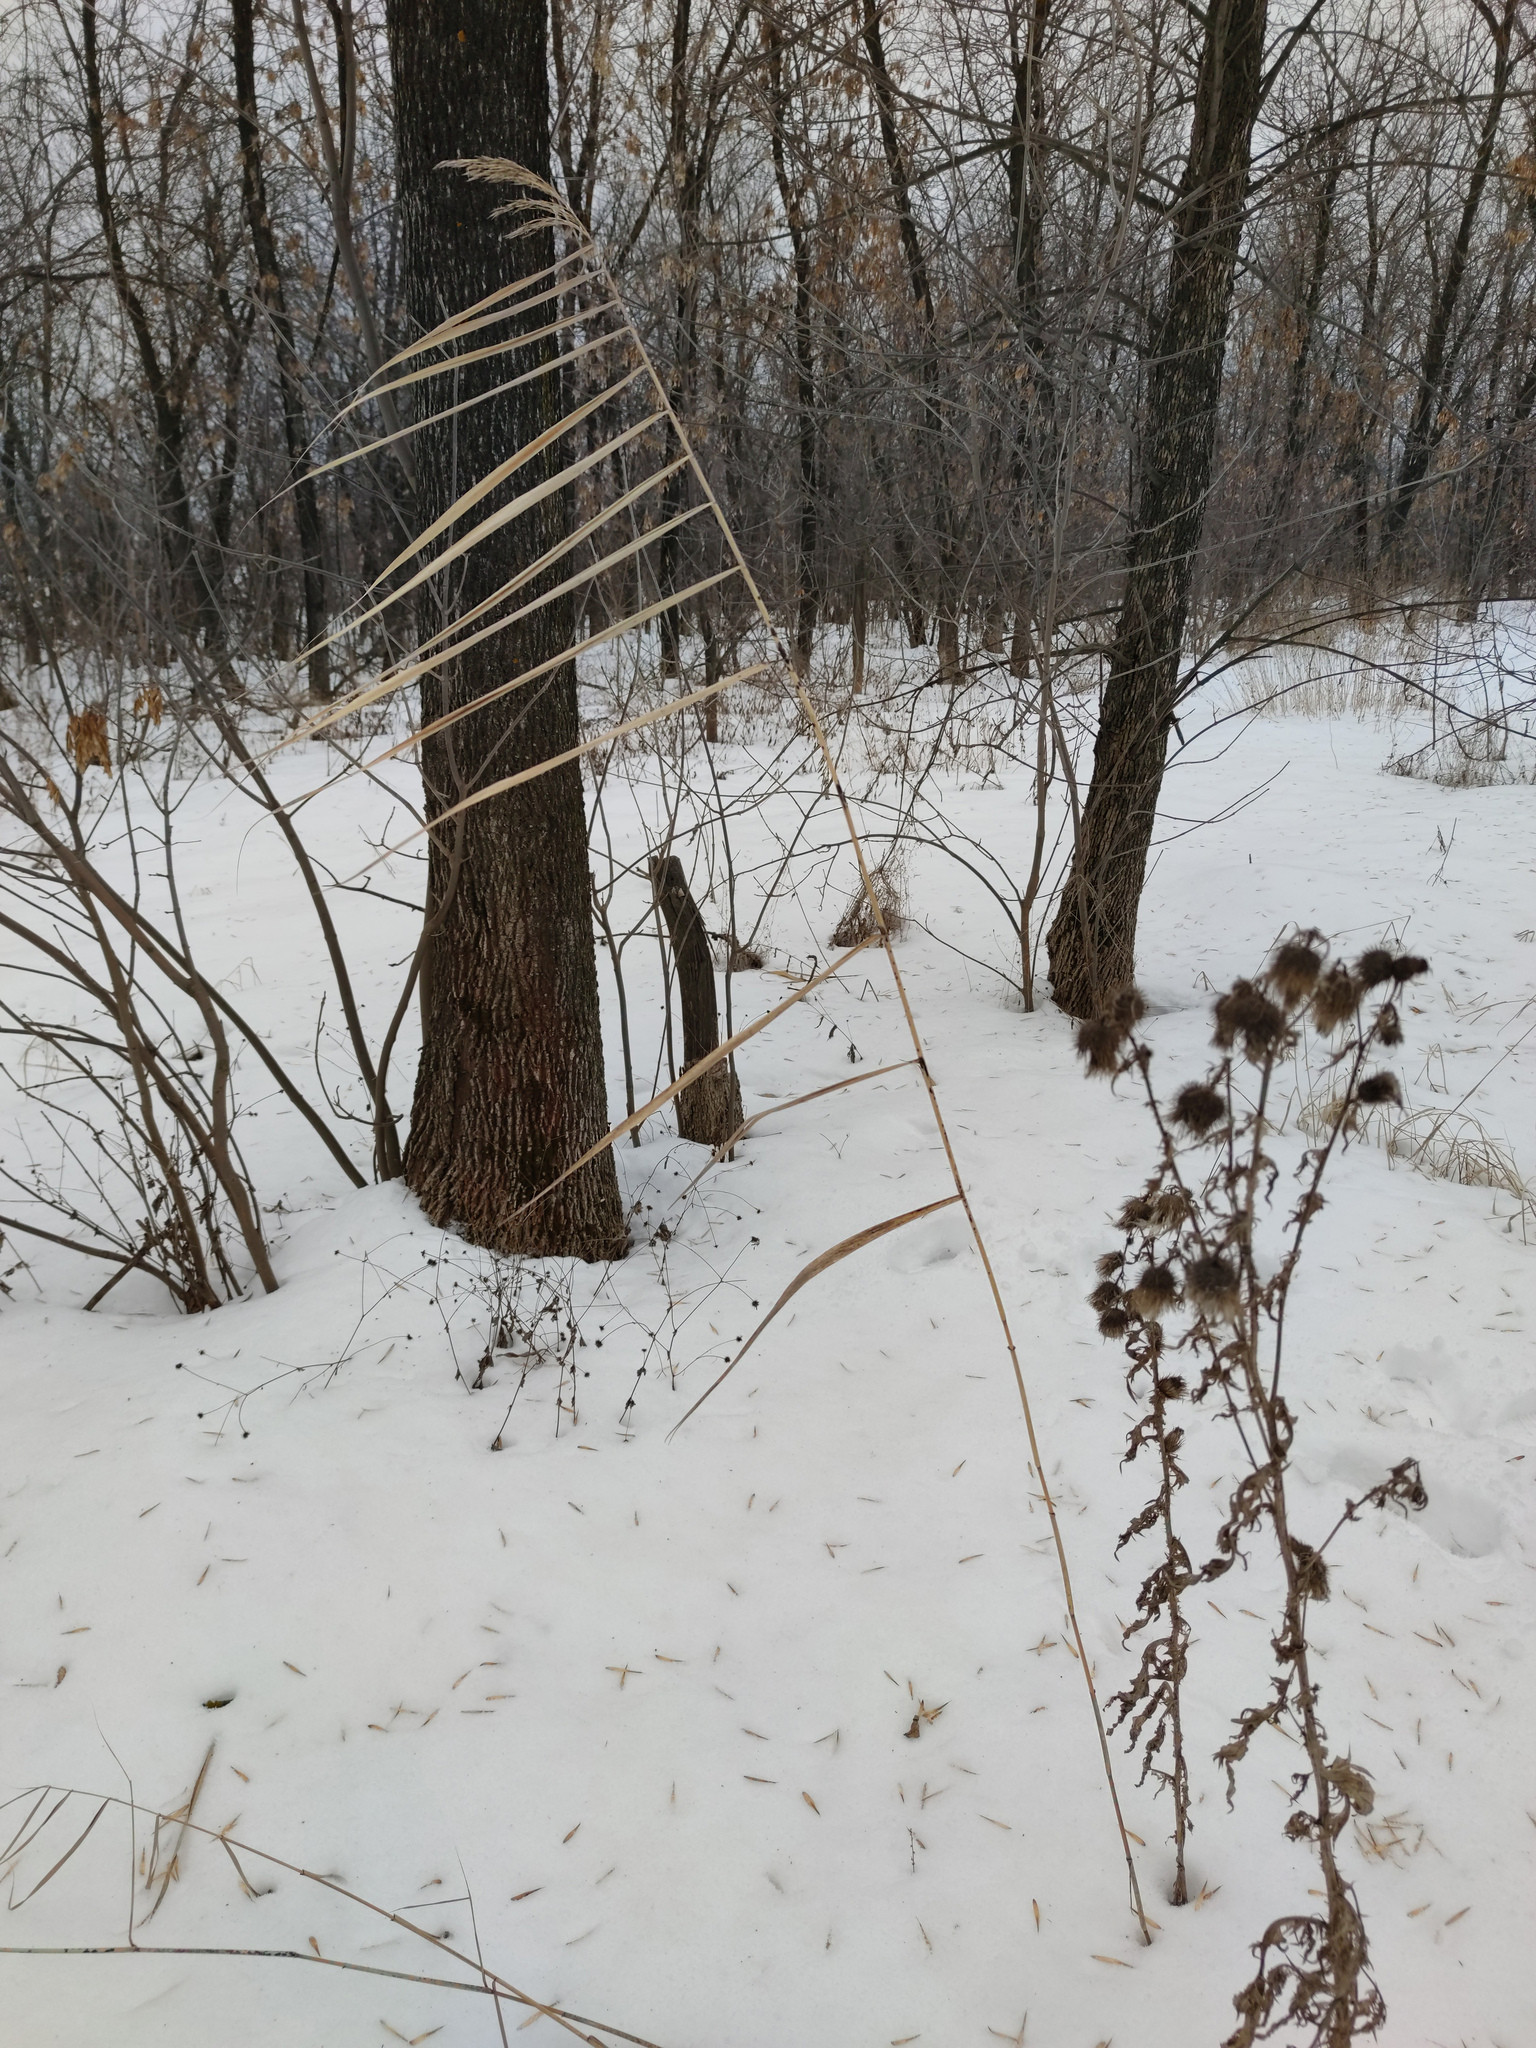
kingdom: Plantae
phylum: Tracheophyta
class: Liliopsida
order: Poales
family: Poaceae
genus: Phragmites
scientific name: Phragmites australis
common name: Common reed
